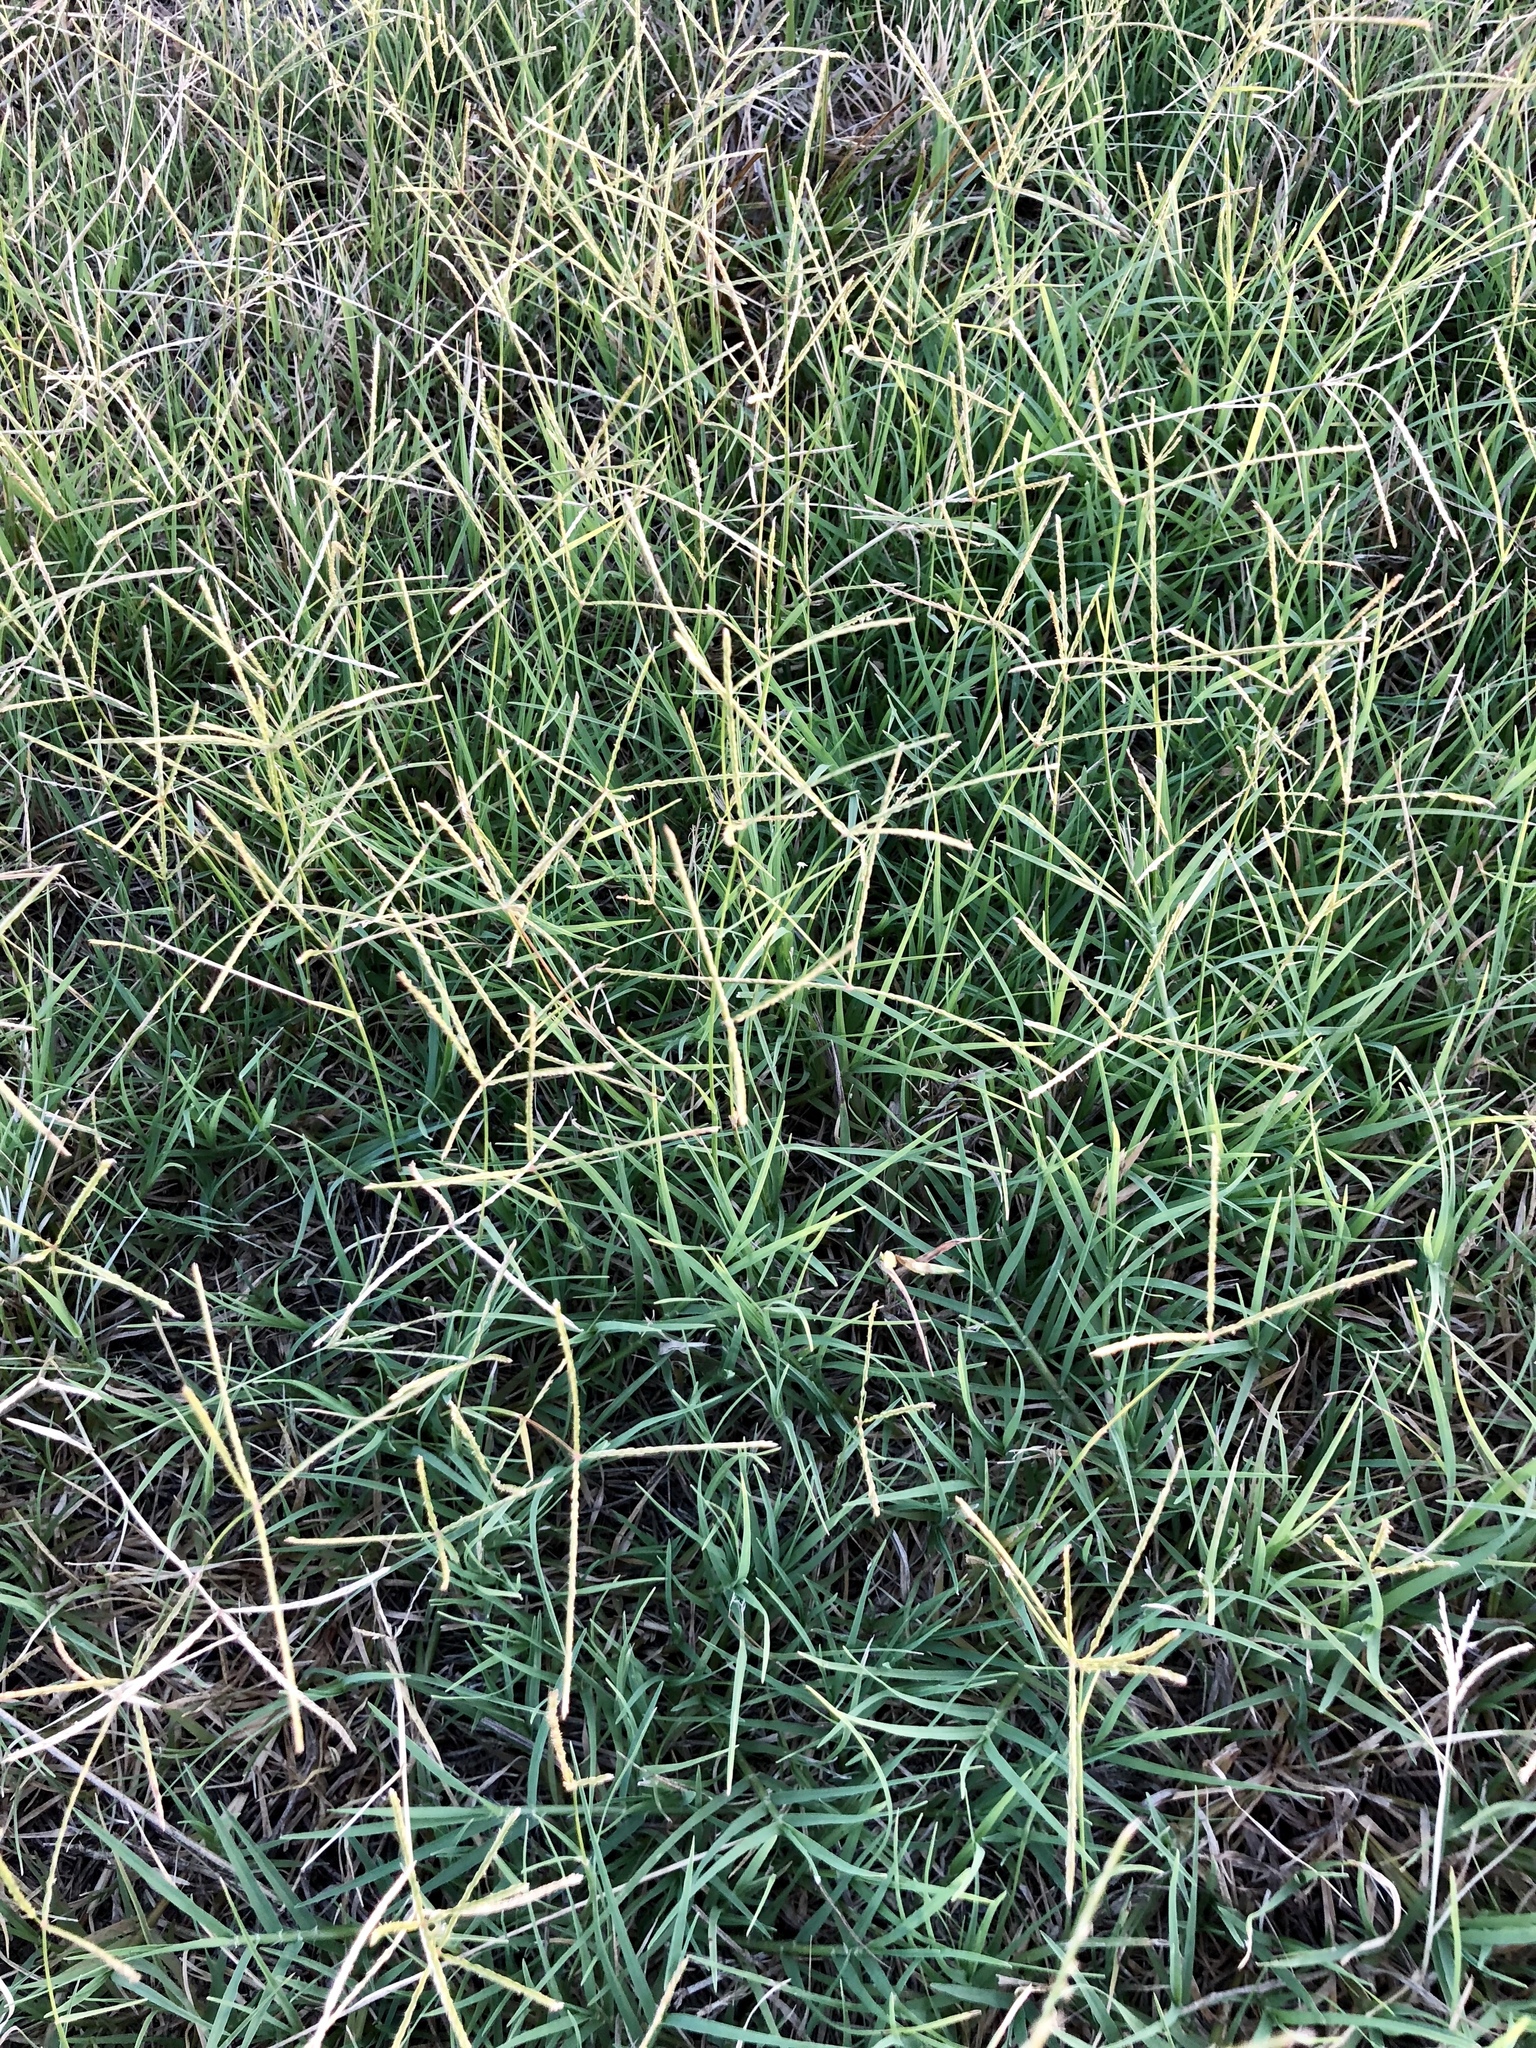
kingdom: Plantae
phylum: Tracheophyta
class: Liliopsida
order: Poales
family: Poaceae
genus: Cynodon
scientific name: Cynodon dactylon
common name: Bermuda grass
